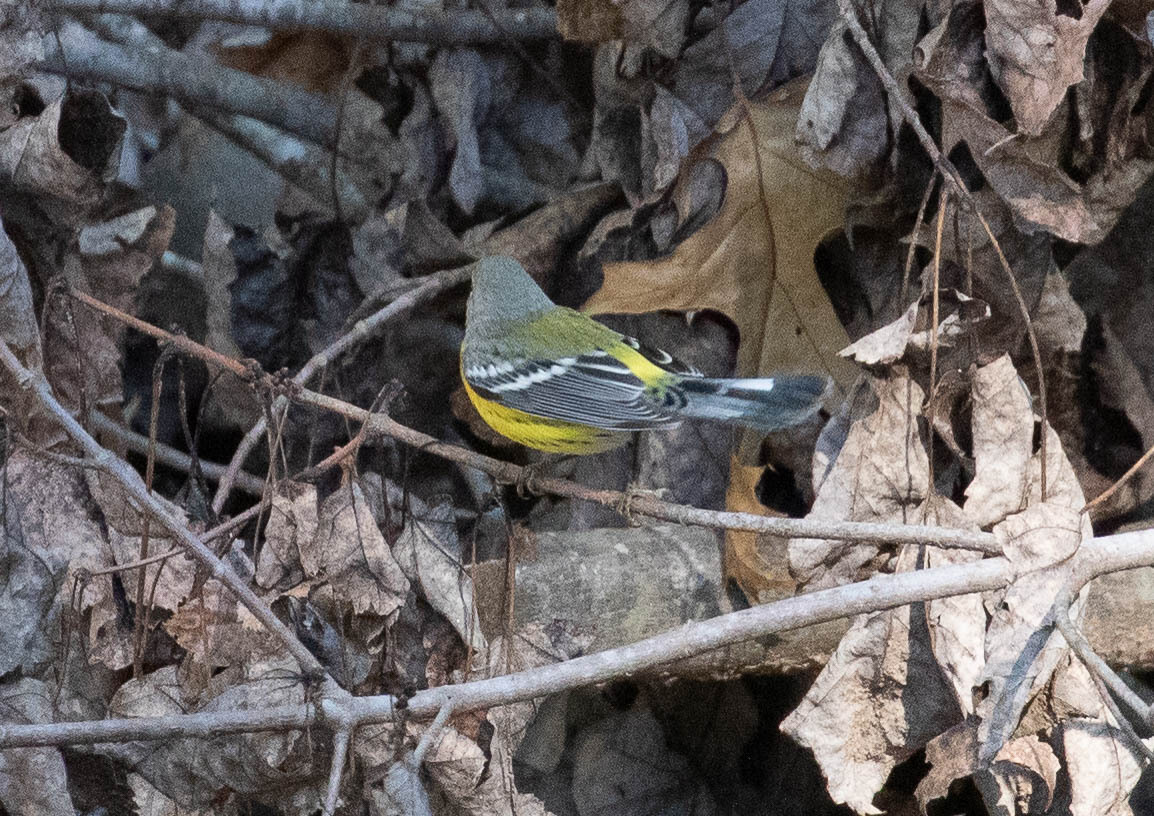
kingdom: Animalia
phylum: Chordata
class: Aves
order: Passeriformes
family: Parulidae
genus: Setophaga
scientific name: Setophaga magnolia
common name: Magnolia warbler
